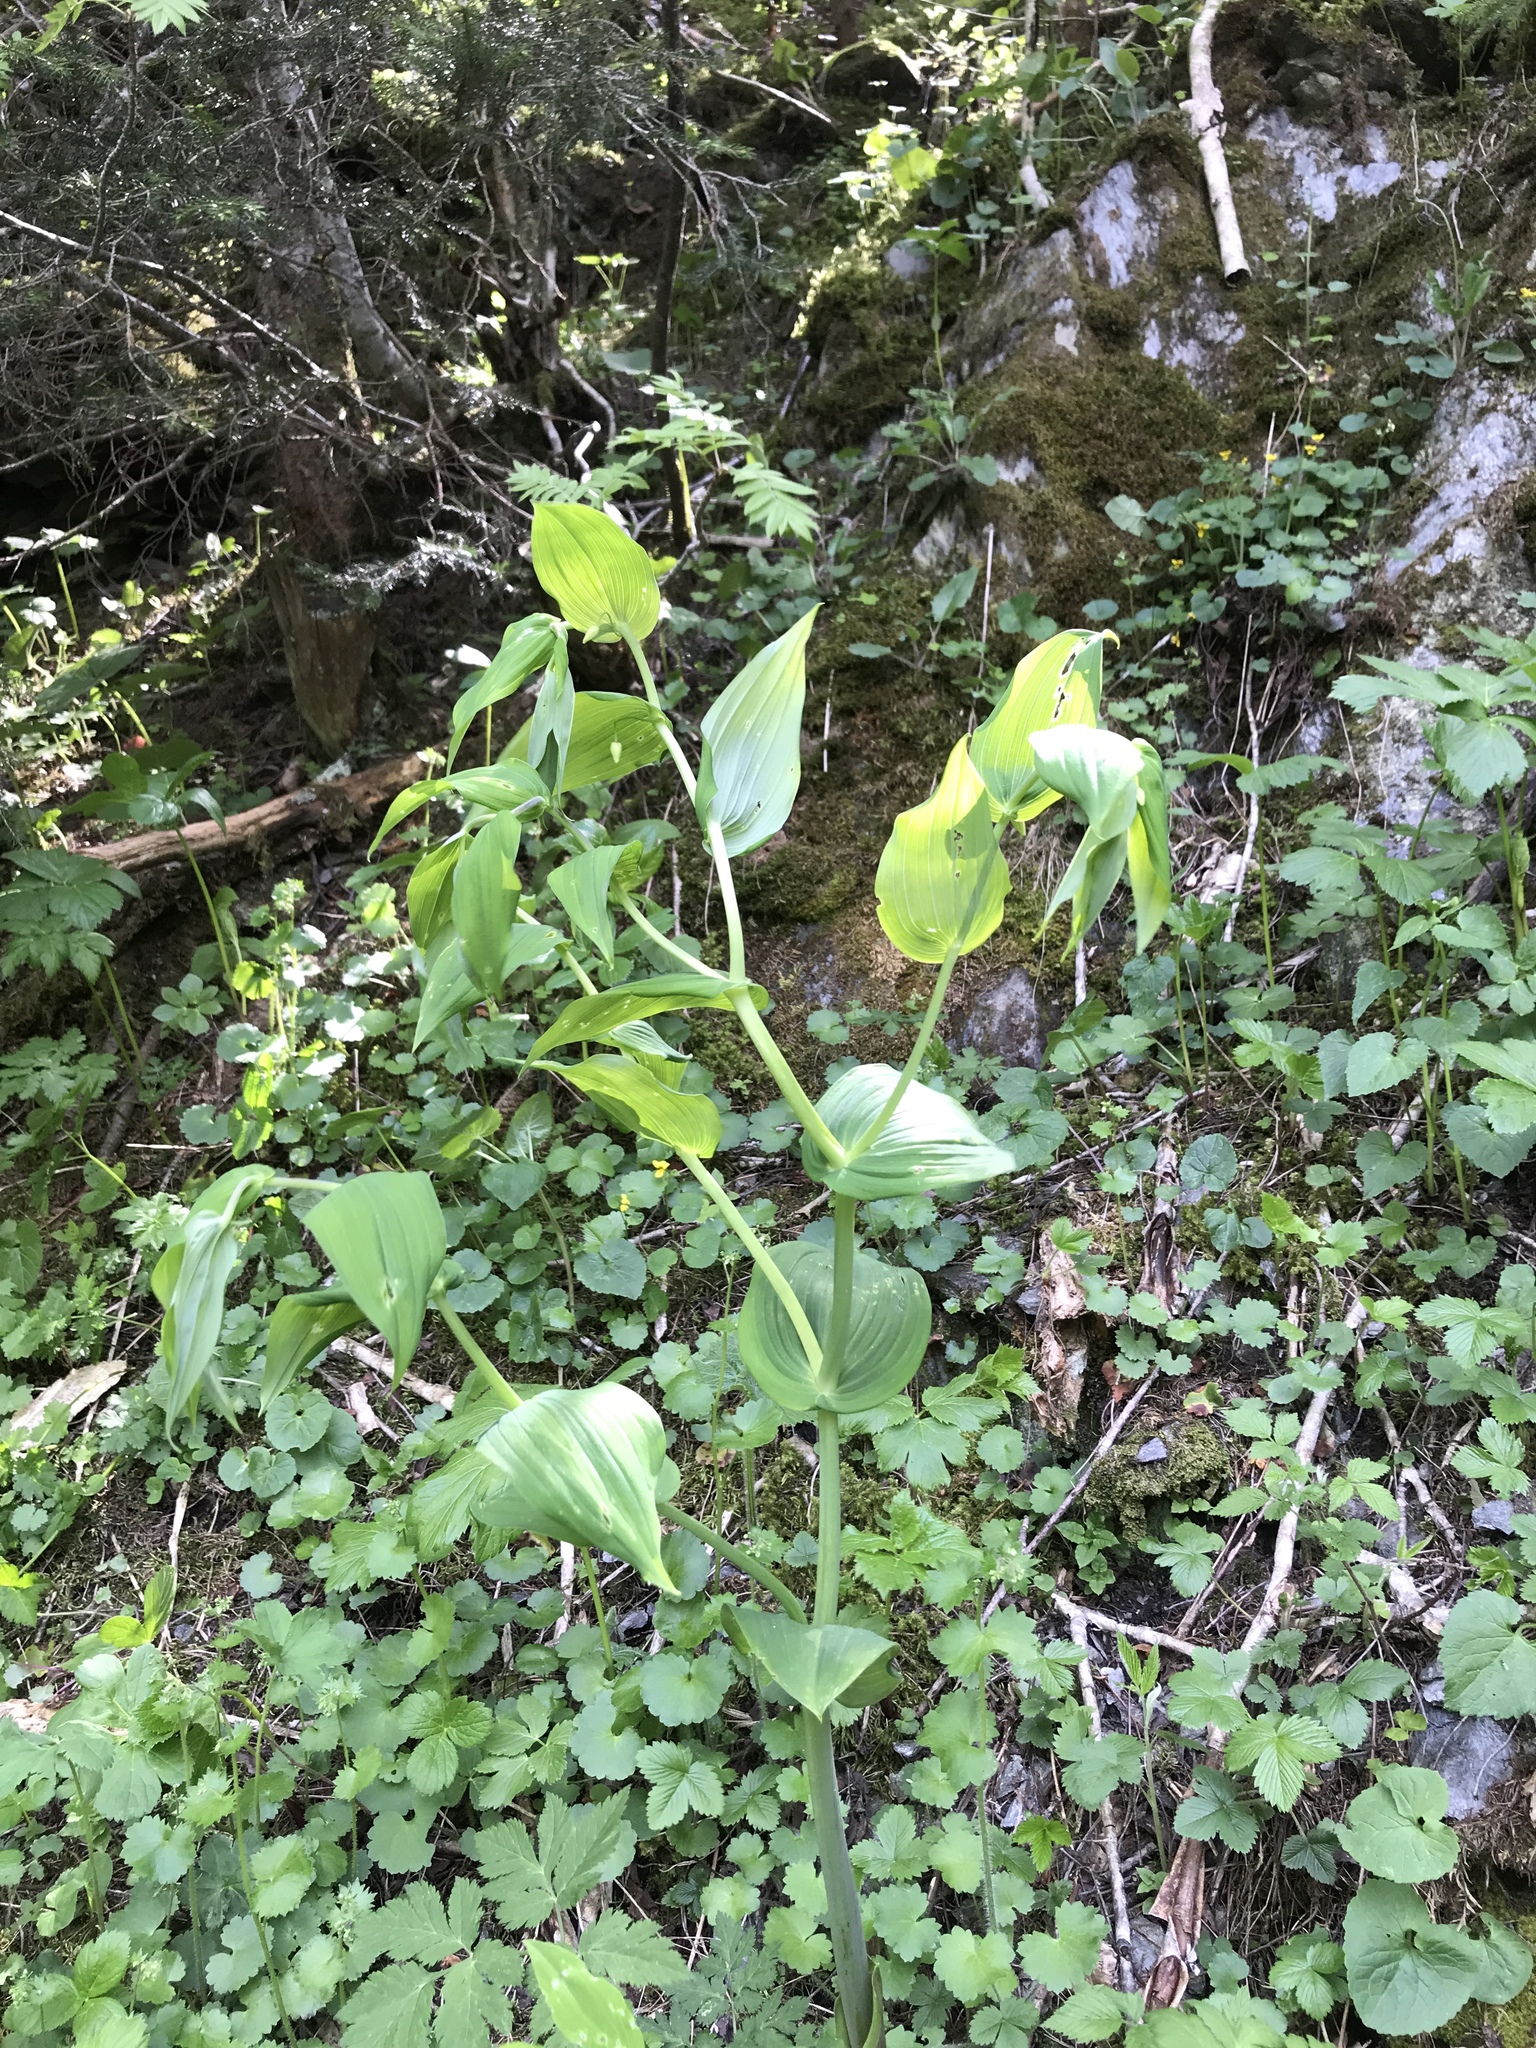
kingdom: Plantae
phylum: Tracheophyta
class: Liliopsida
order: Liliales
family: Liliaceae
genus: Streptopus
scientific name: Streptopus amplexifolius
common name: Clasp twisted stalk
